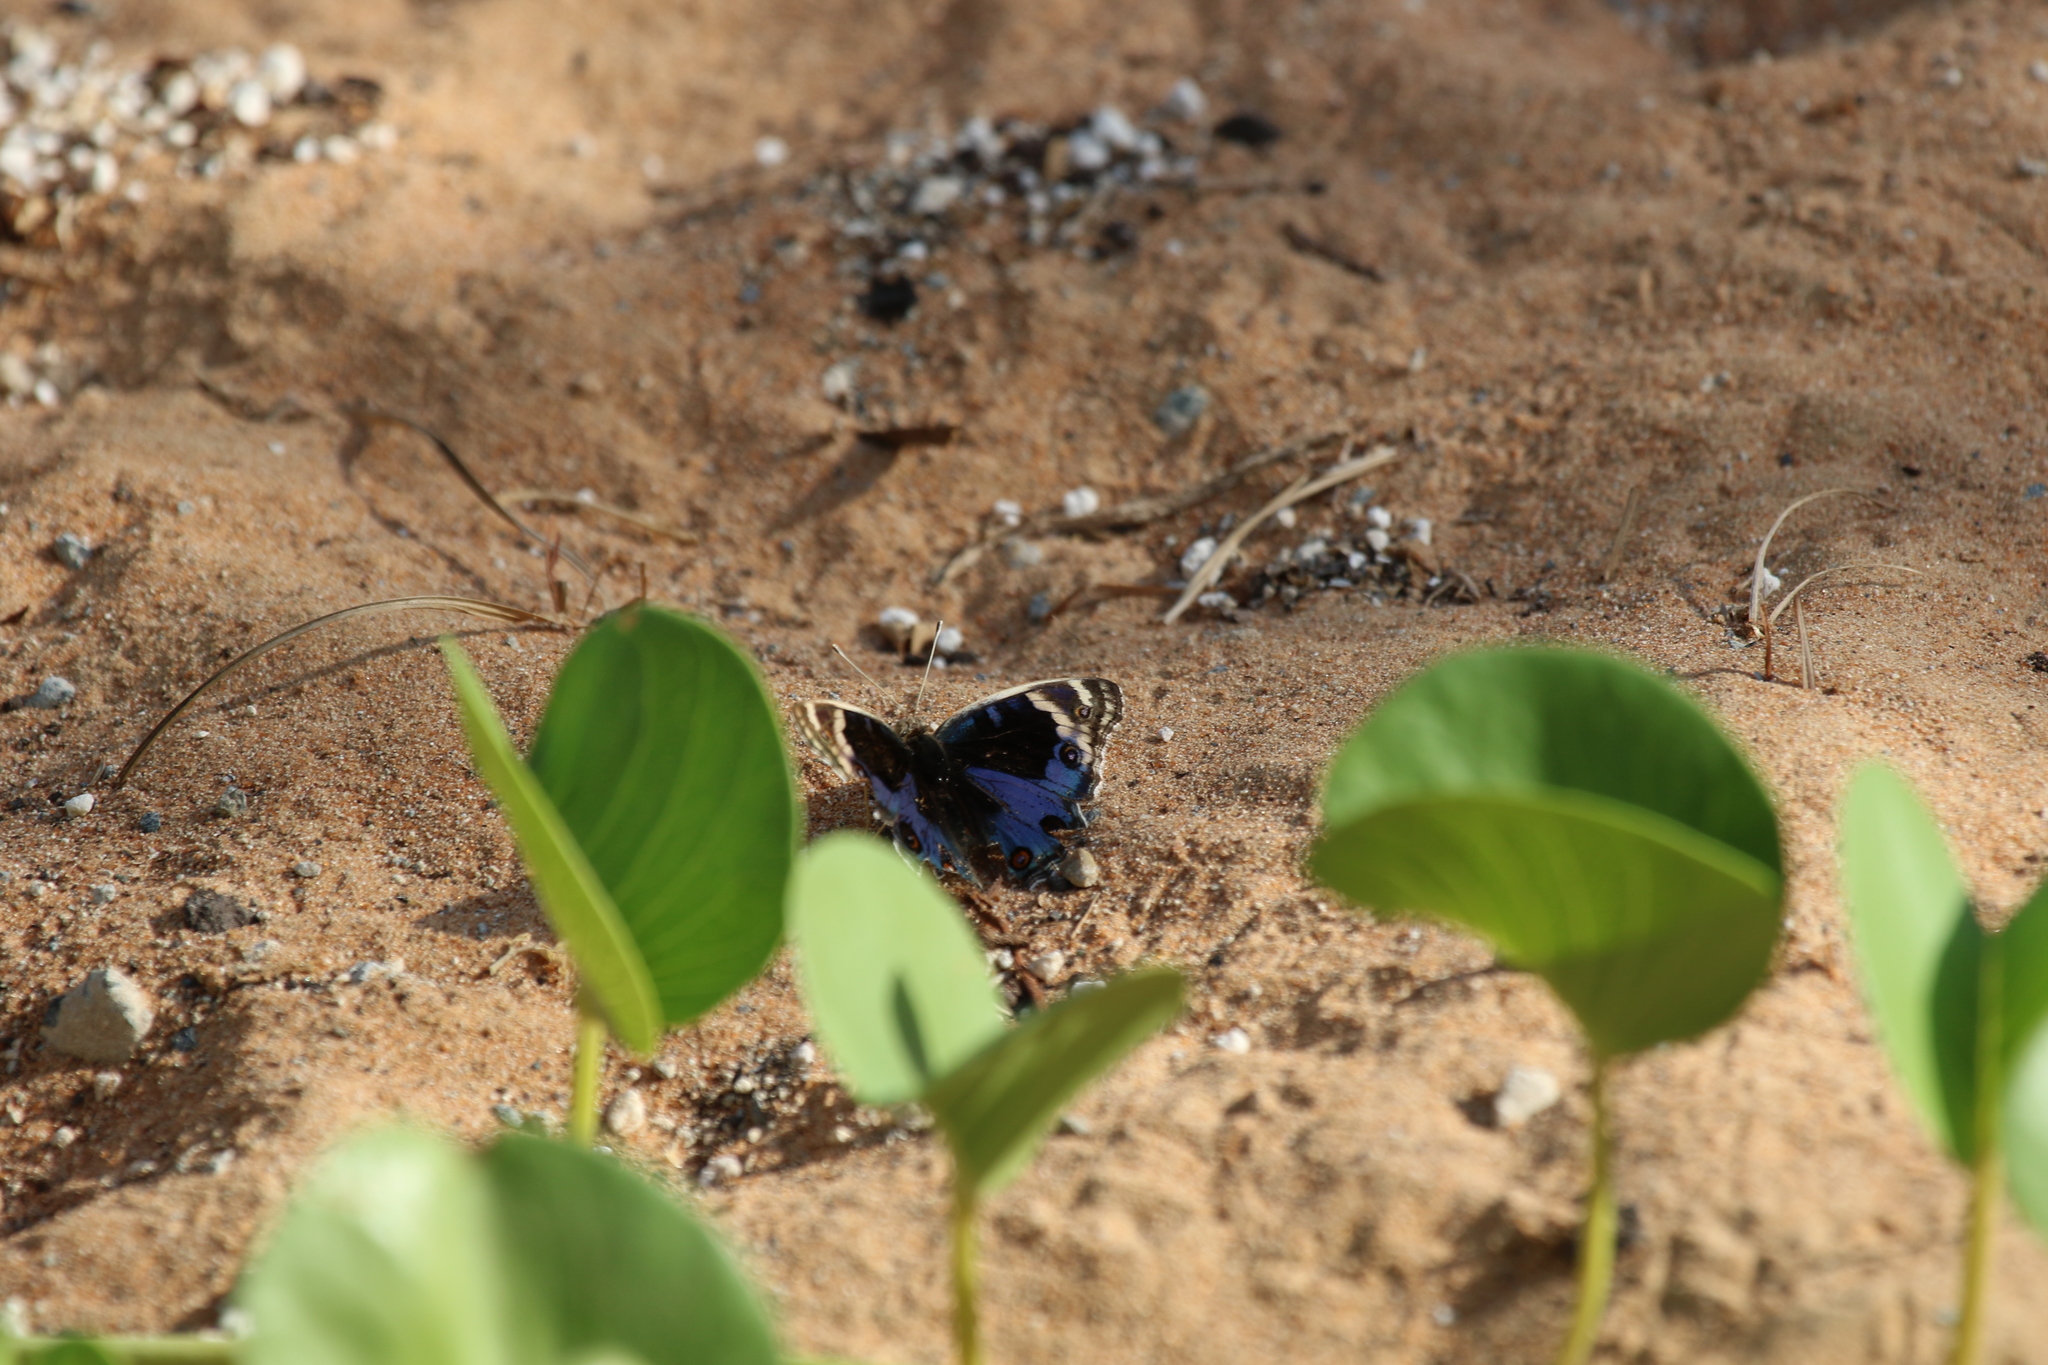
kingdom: Animalia
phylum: Arthropoda
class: Insecta
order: Lepidoptera
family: Nymphalidae
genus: Junonia
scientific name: Junonia orithya
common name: Blue pansy
